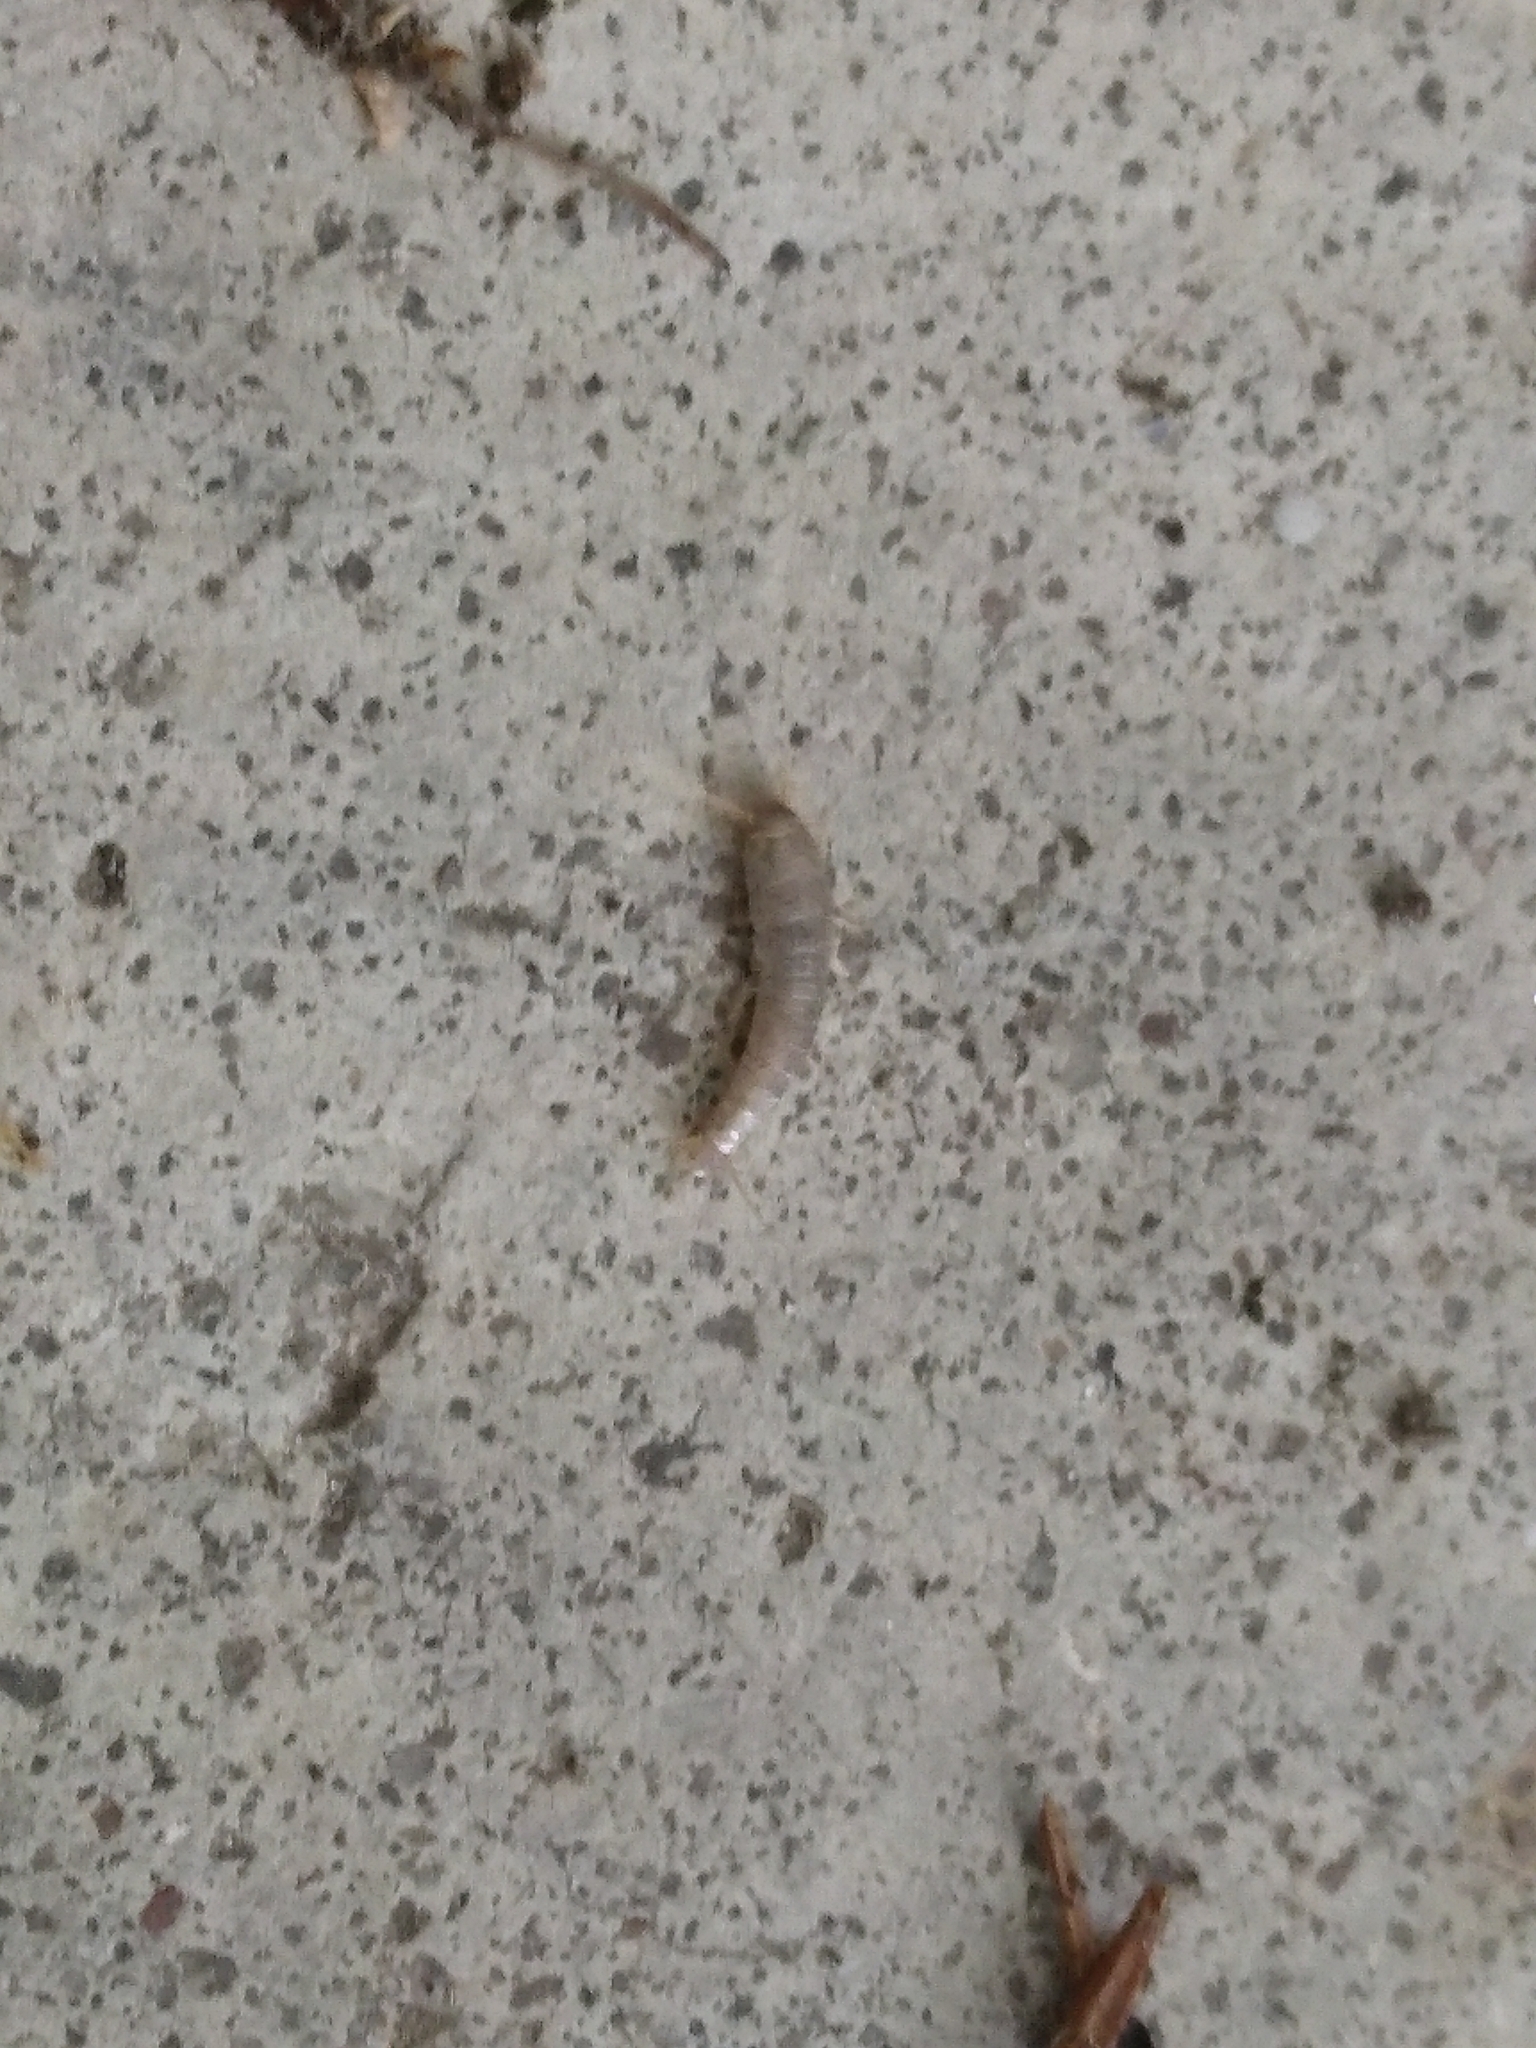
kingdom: Animalia
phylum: Arthropoda
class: Insecta
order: Zygentoma
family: Lepismatidae
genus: Lepisma
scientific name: Lepisma saccharinum
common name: Silverfish
